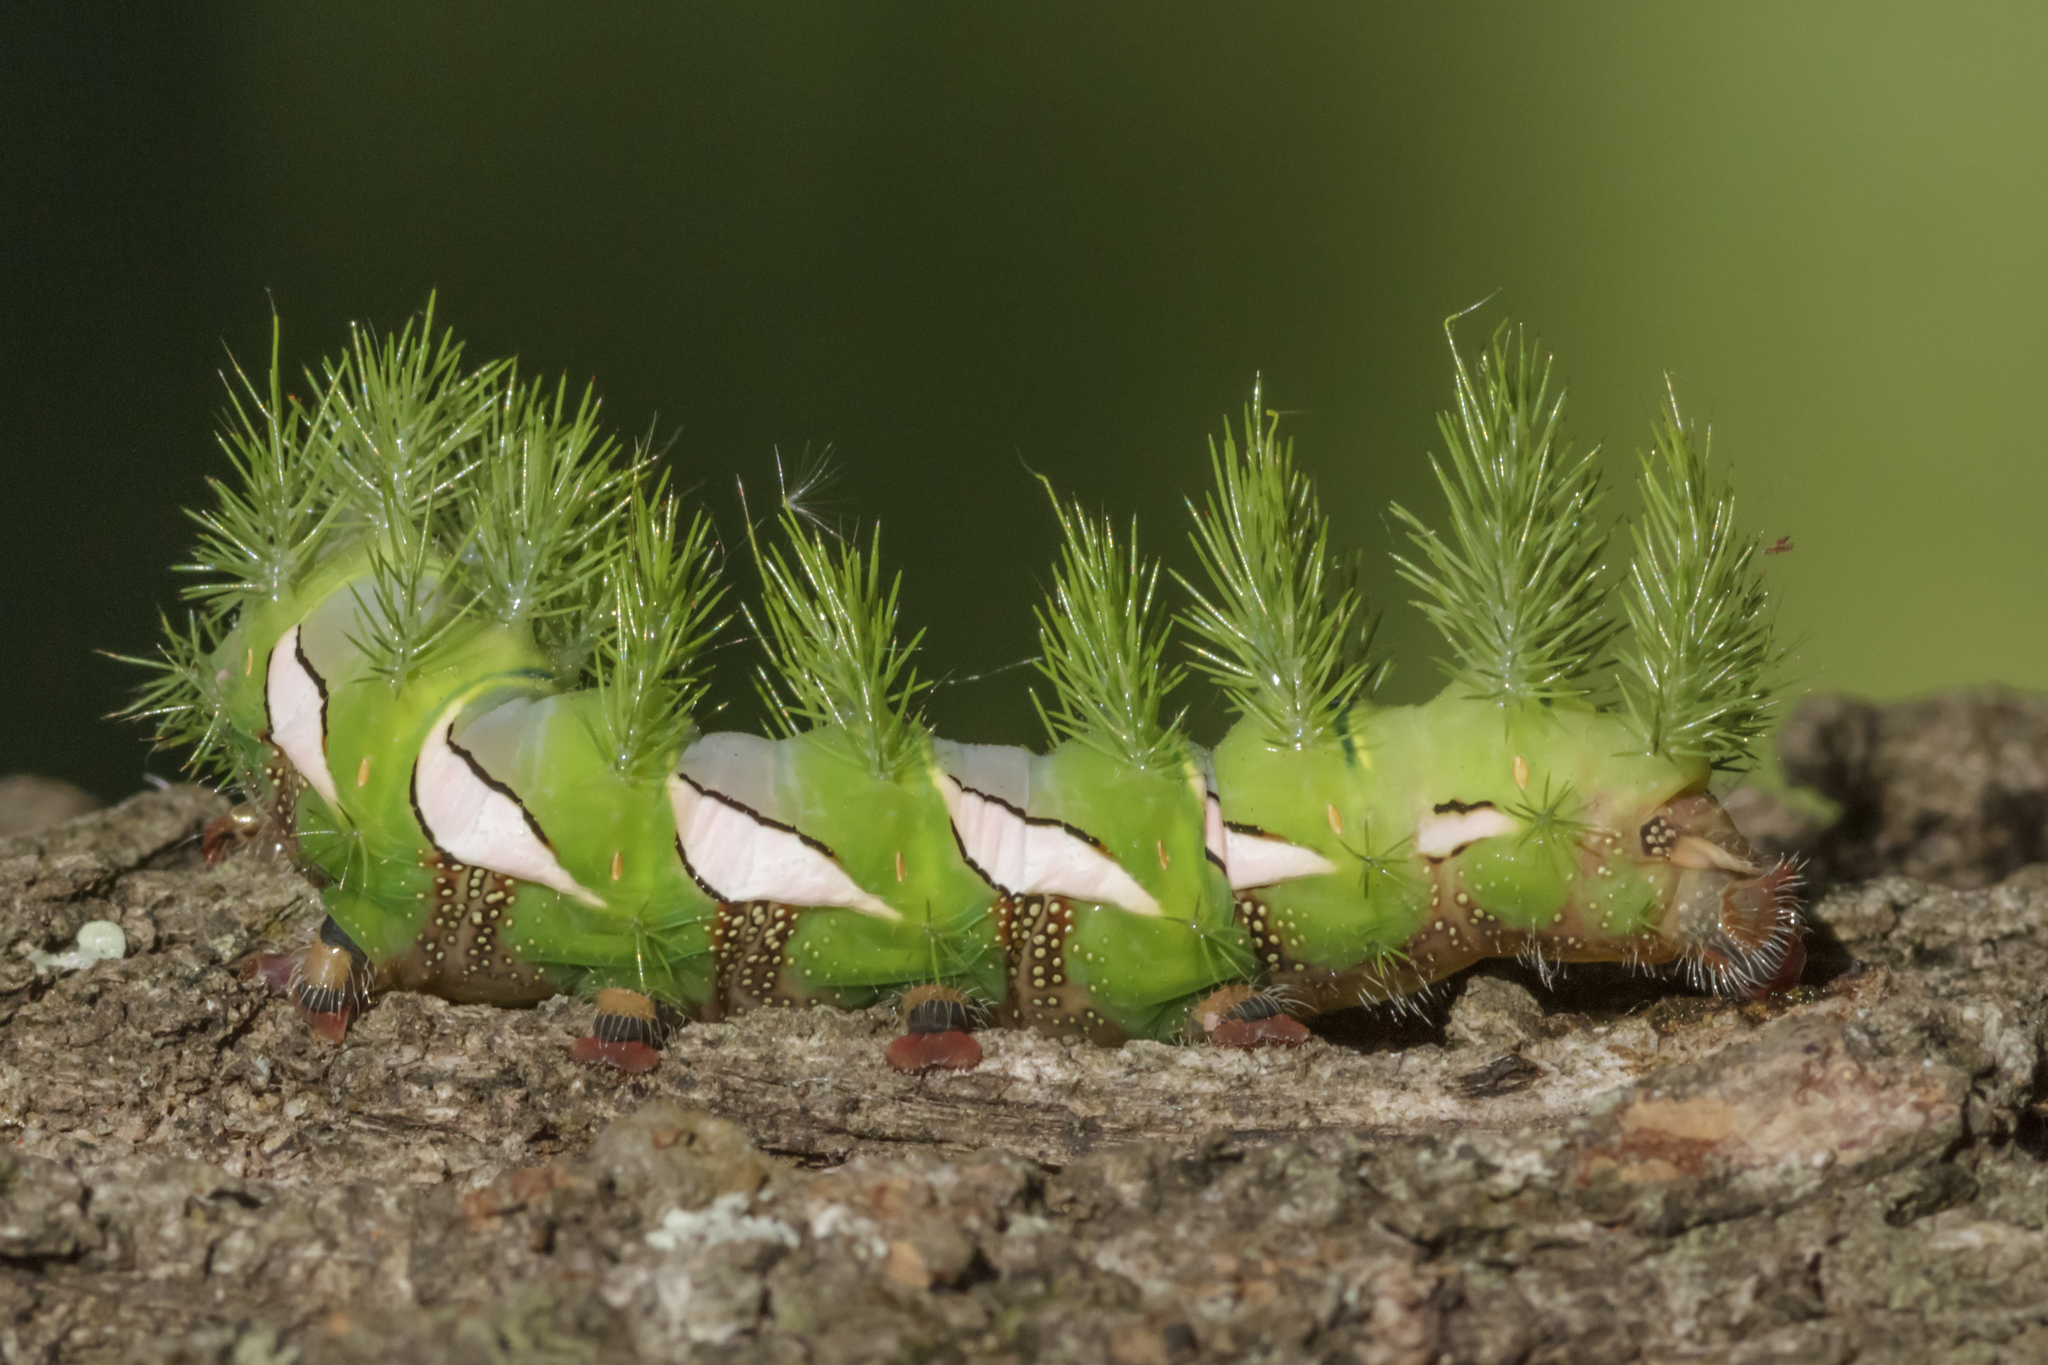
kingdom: Animalia
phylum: Arthropoda
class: Insecta
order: Lepidoptera
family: Saturniidae
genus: Automeris
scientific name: Automeris naranja
